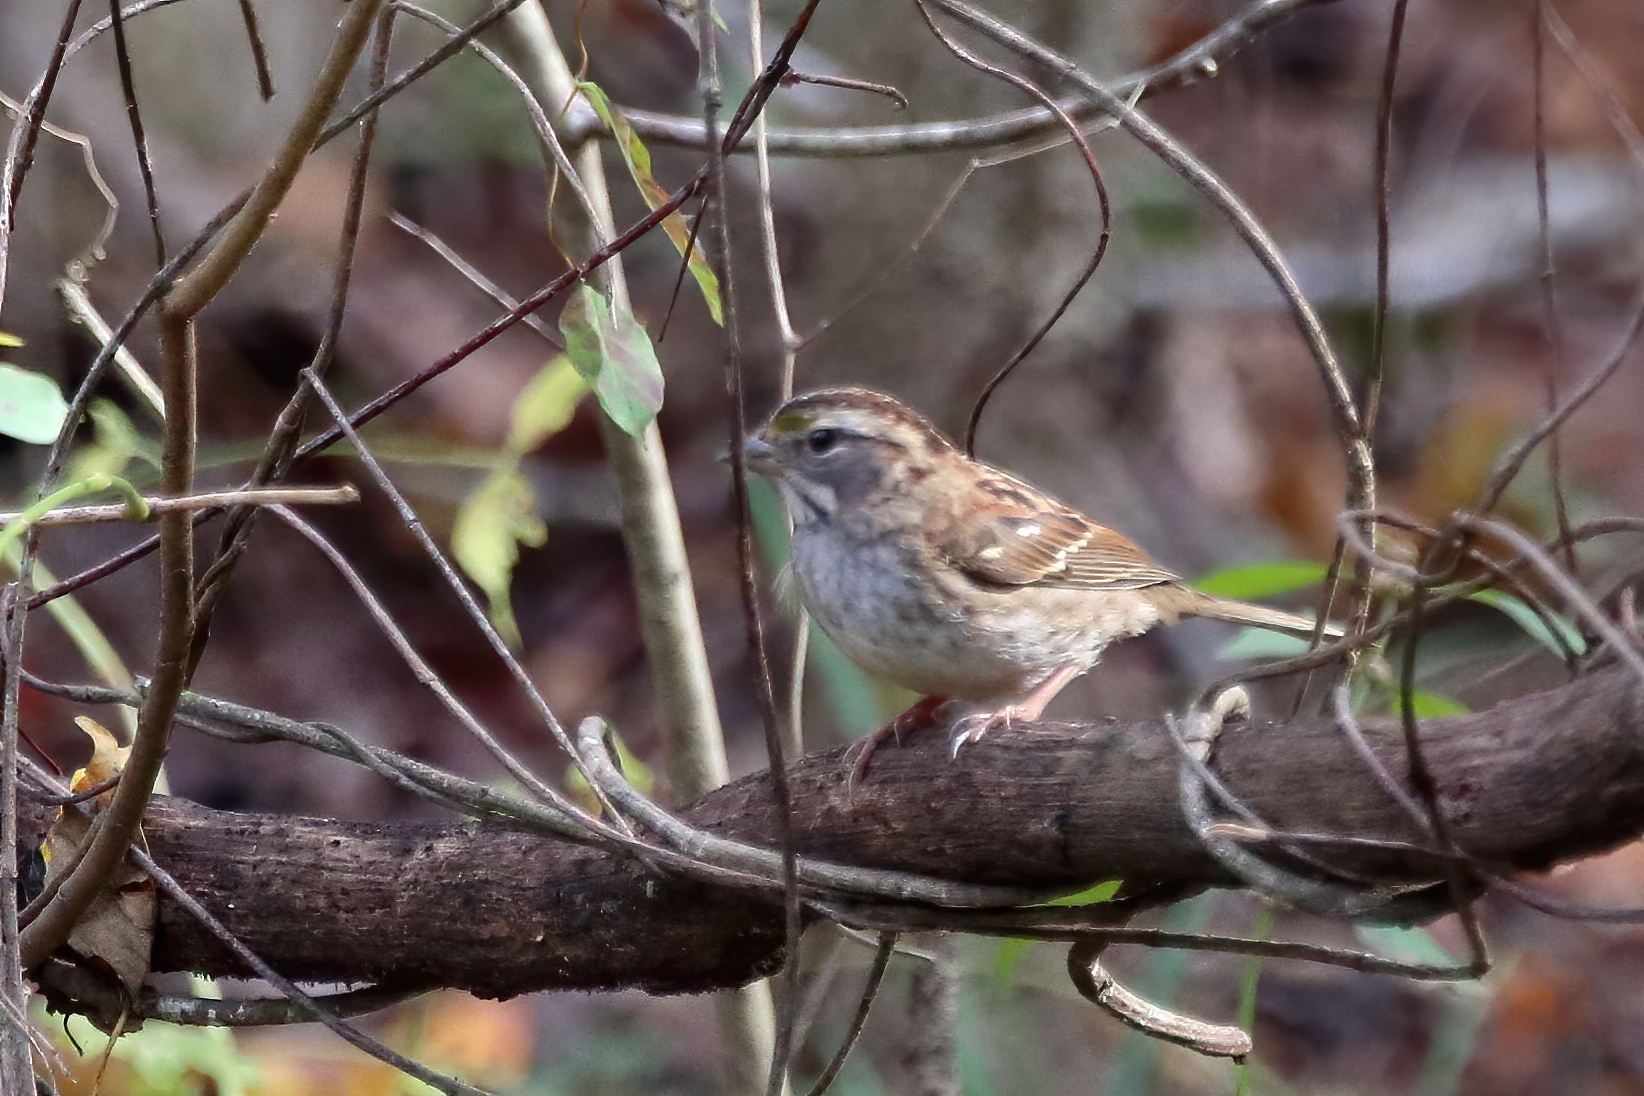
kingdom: Animalia
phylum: Chordata
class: Aves
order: Passeriformes
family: Passerellidae
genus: Zonotrichia
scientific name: Zonotrichia albicollis
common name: White-throated sparrow
